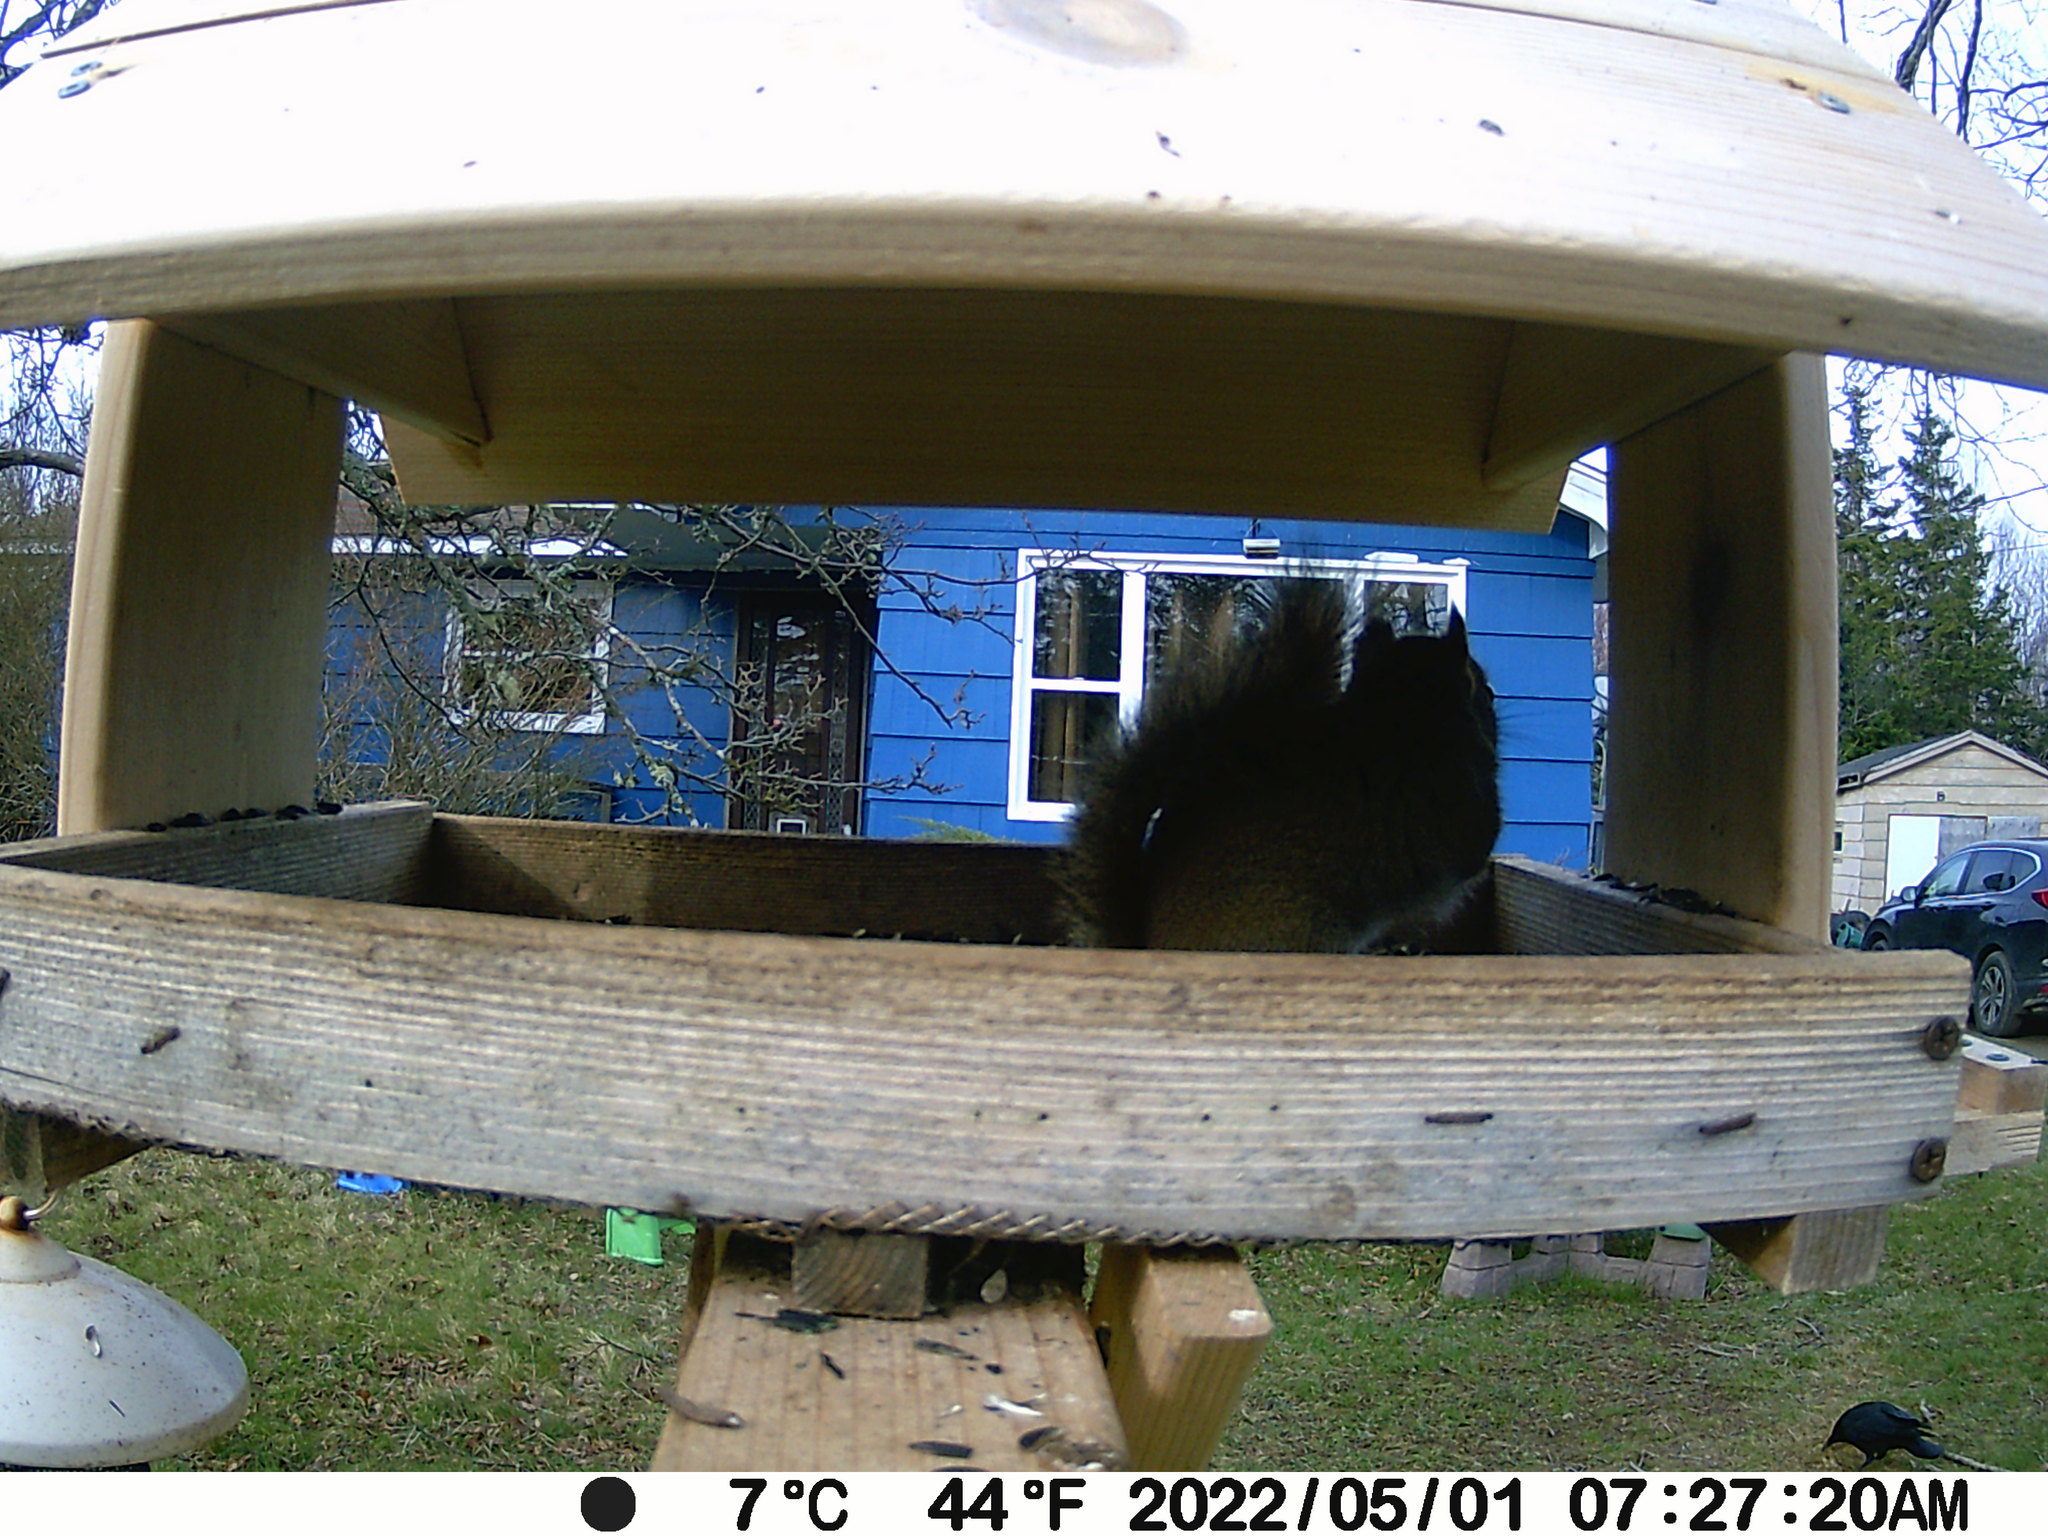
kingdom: Animalia
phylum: Chordata
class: Aves
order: Passeriformes
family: Corvidae
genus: Corvus
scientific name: Corvus brachyrhynchos
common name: American crow
